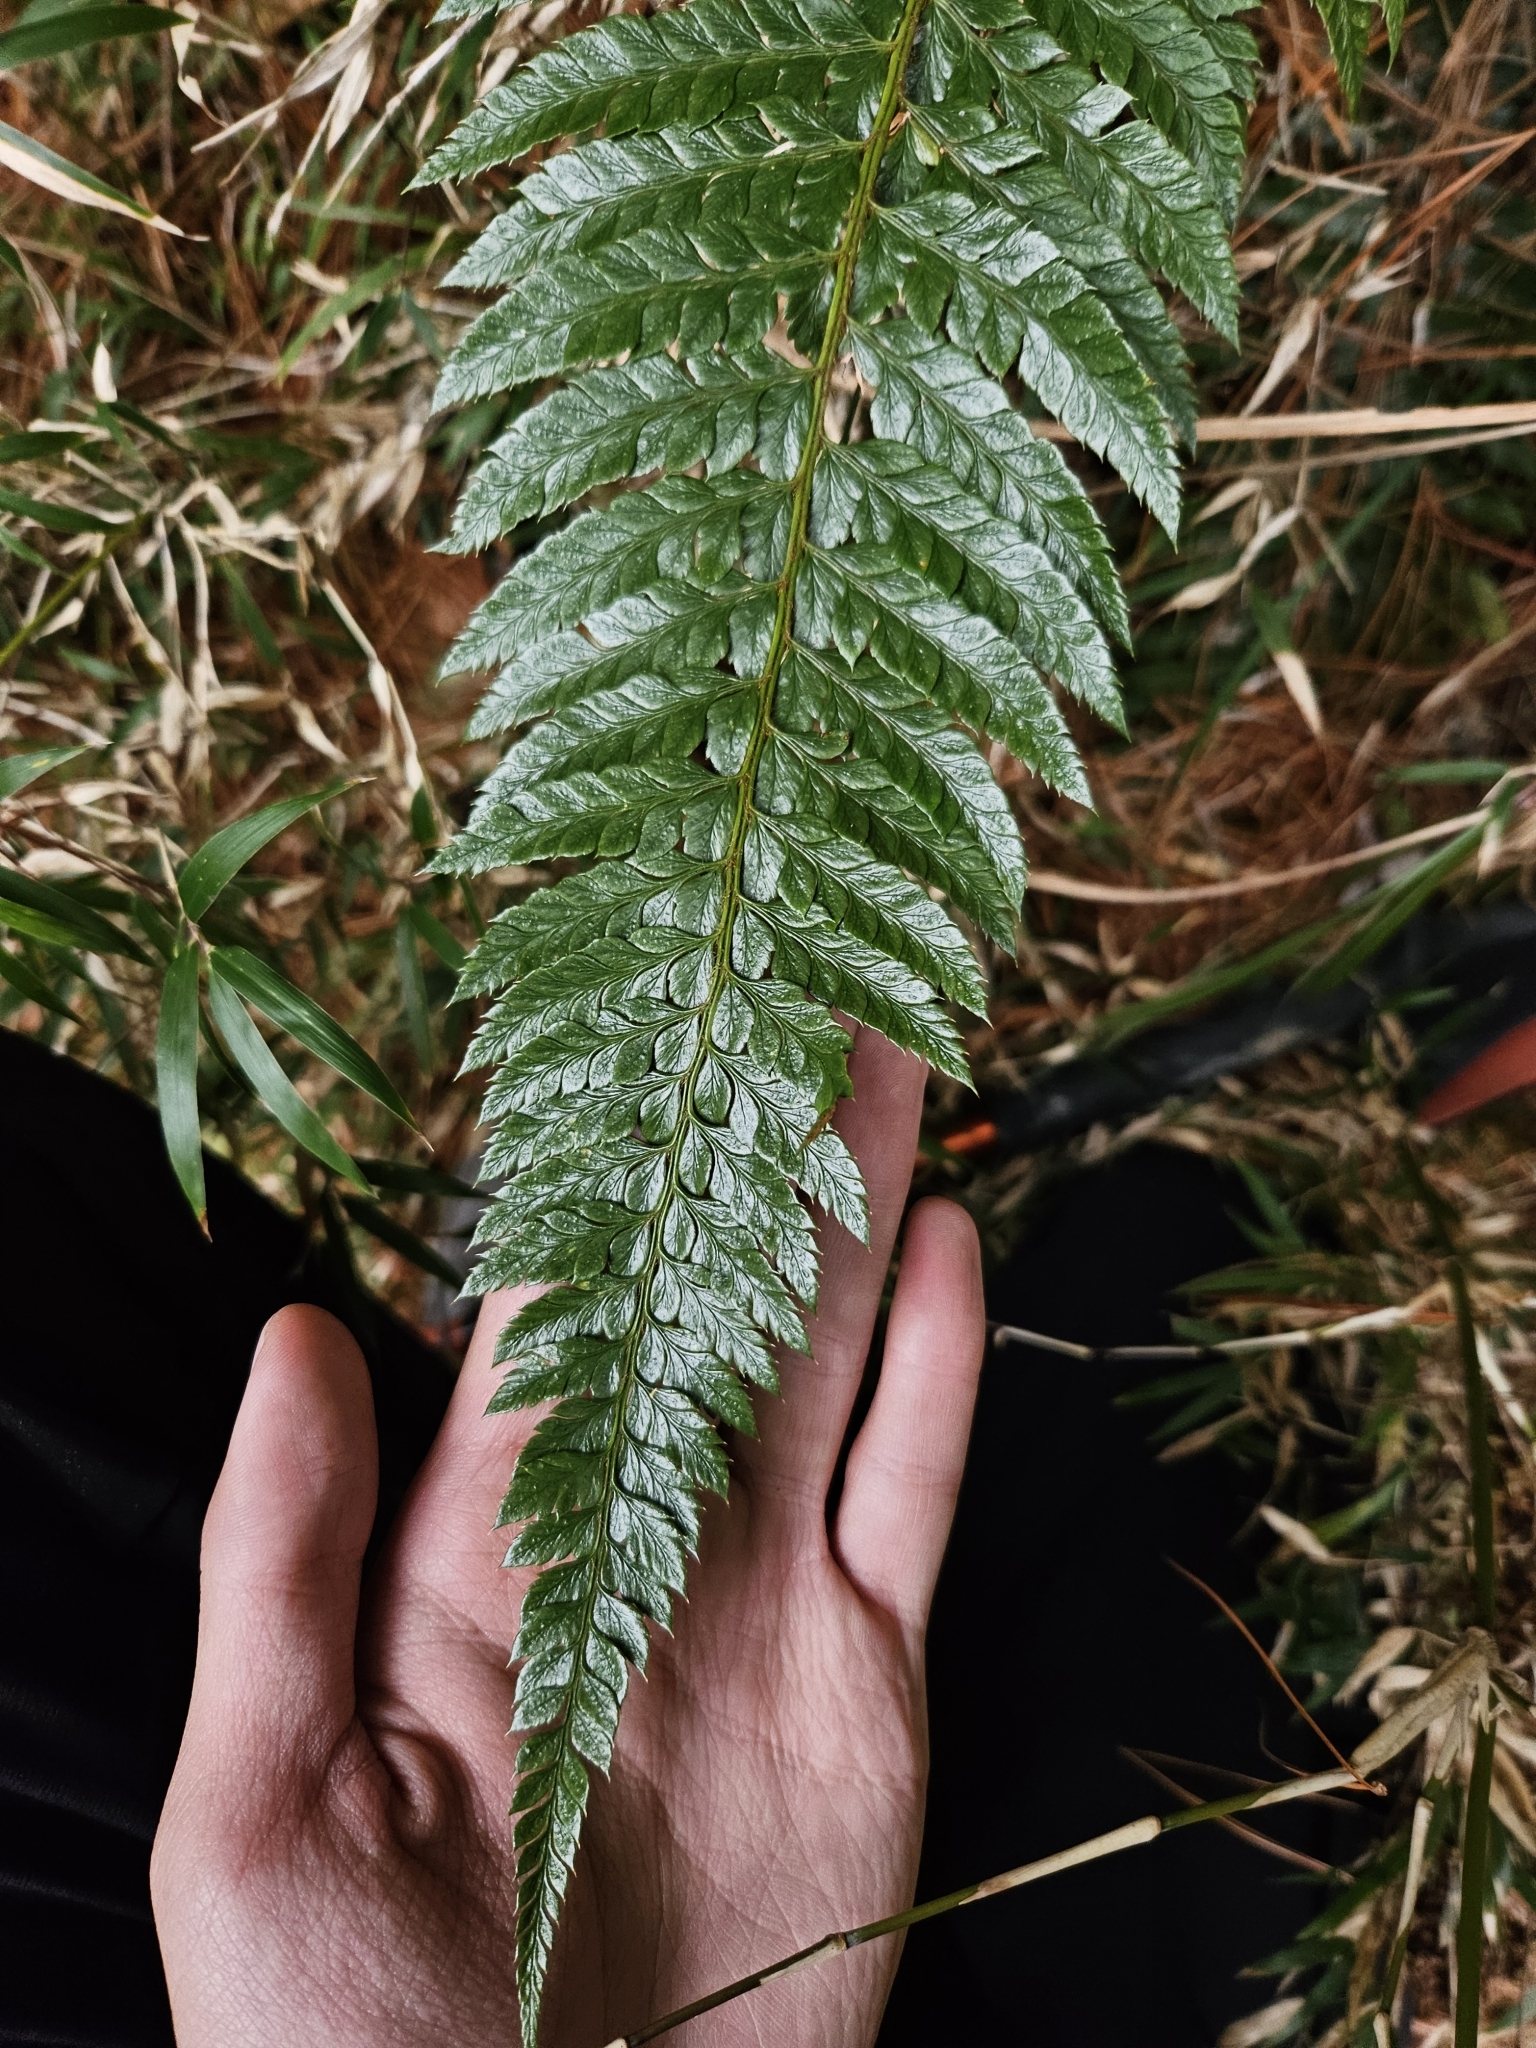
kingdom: Plantae
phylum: Tracheophyta
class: Polypodiopsida
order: Polypodiales
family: Dryopteridaceae
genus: Polystichum
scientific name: Polystichum neolobatum
